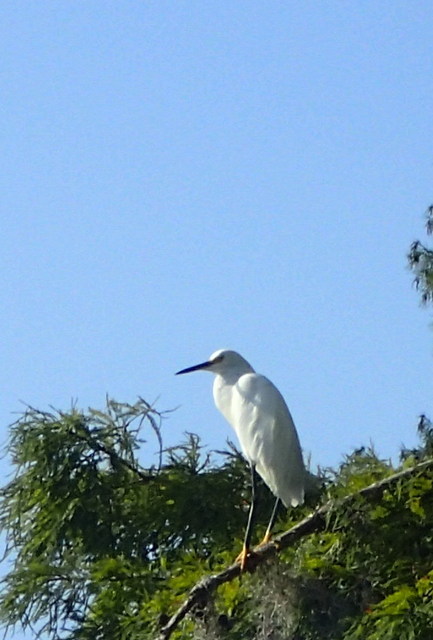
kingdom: Animalia
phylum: Chordata
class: Aves
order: Pelecaniformes
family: Ardeidae
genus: Egretta
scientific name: Egretta thula
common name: Snowy egret
